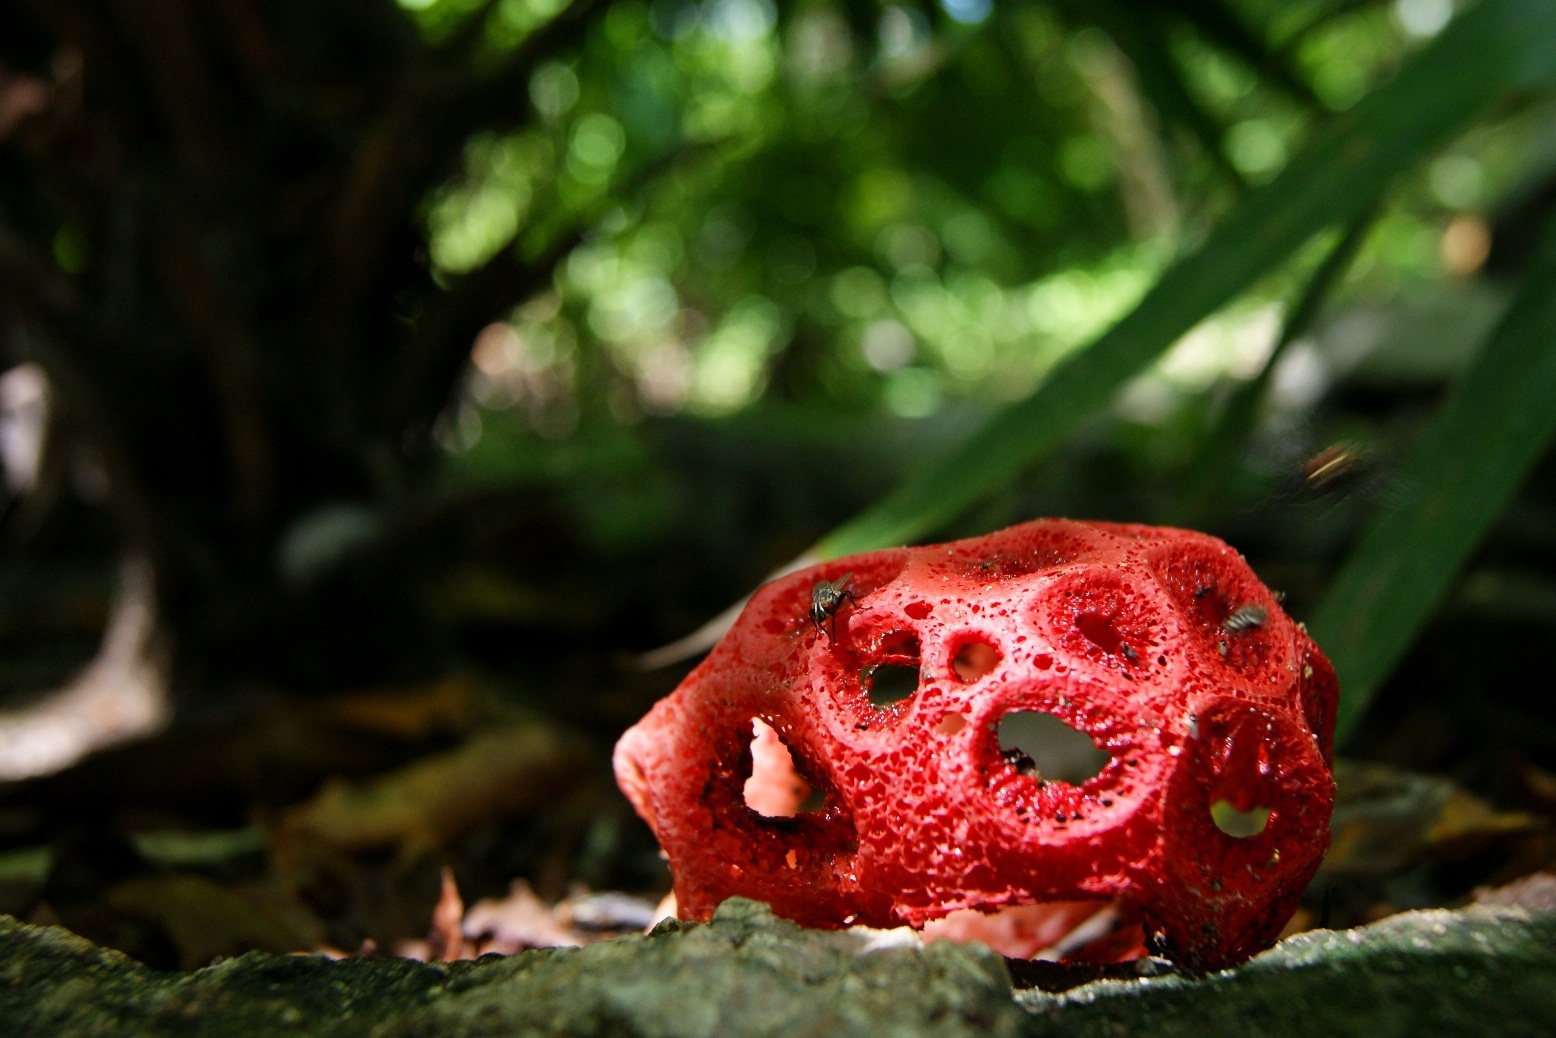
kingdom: Fungi
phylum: Basidiomycota
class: Agaricomycetes
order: Phallales
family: Phallaceae
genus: Clathrus
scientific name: Clathrus crispatus
